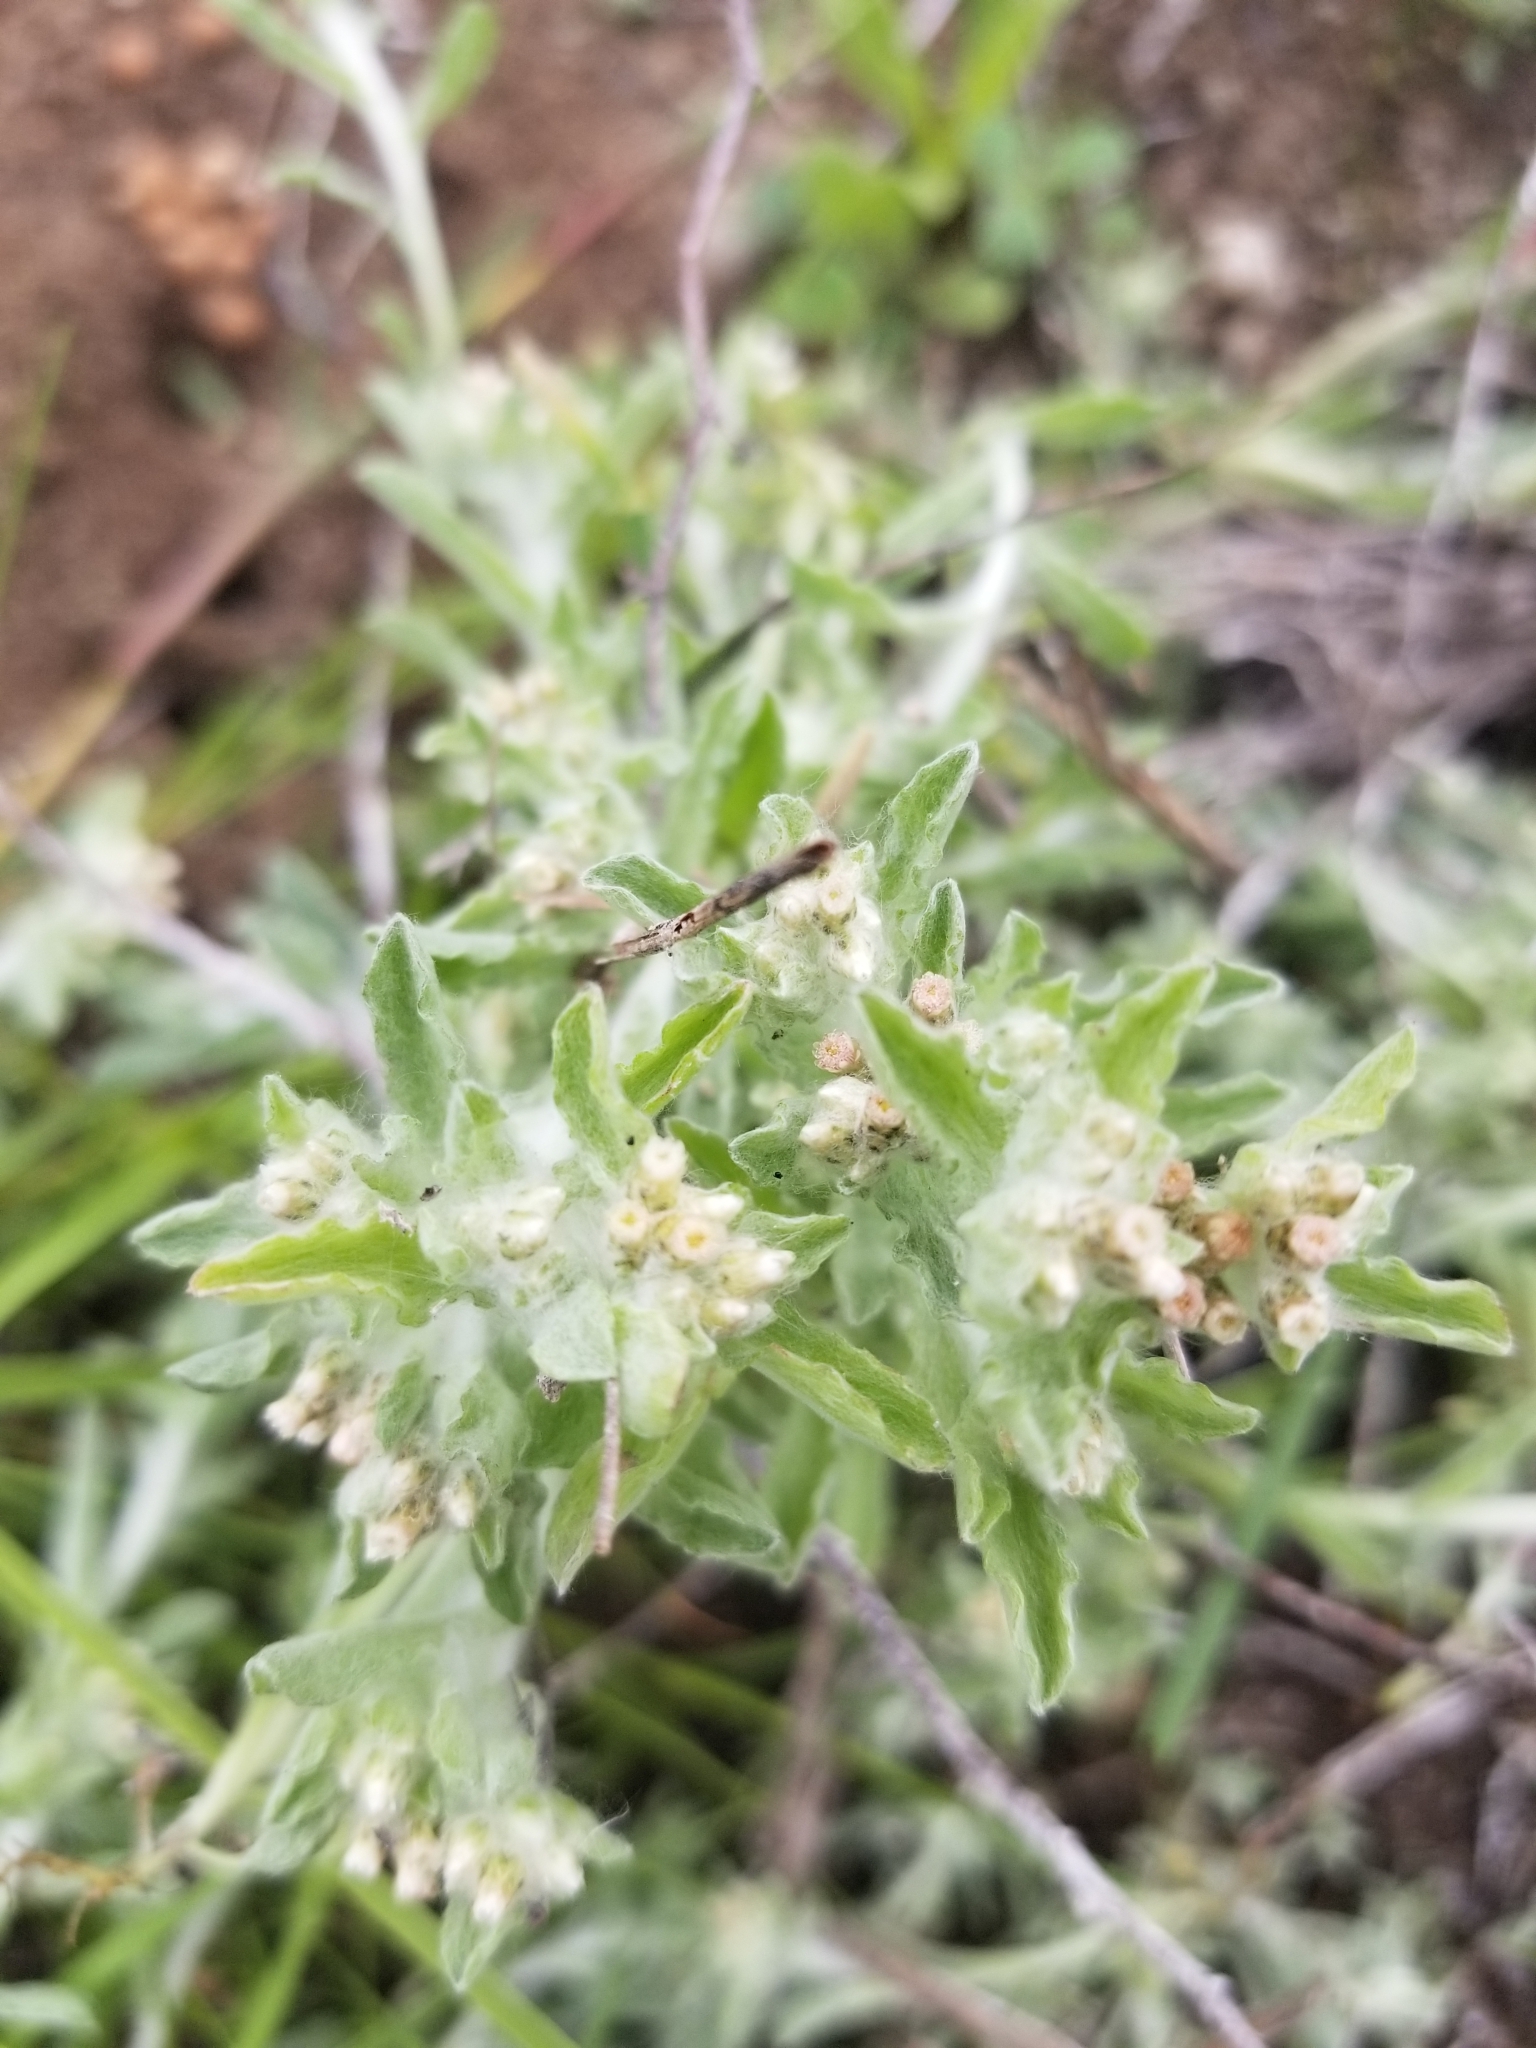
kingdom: Plantae
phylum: Tracheophyta
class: Magnoliopsida
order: Asterales
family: Asteraceae
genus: Gnaphalium
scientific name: Gnaphalium palustre
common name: Western marsh cudweed
